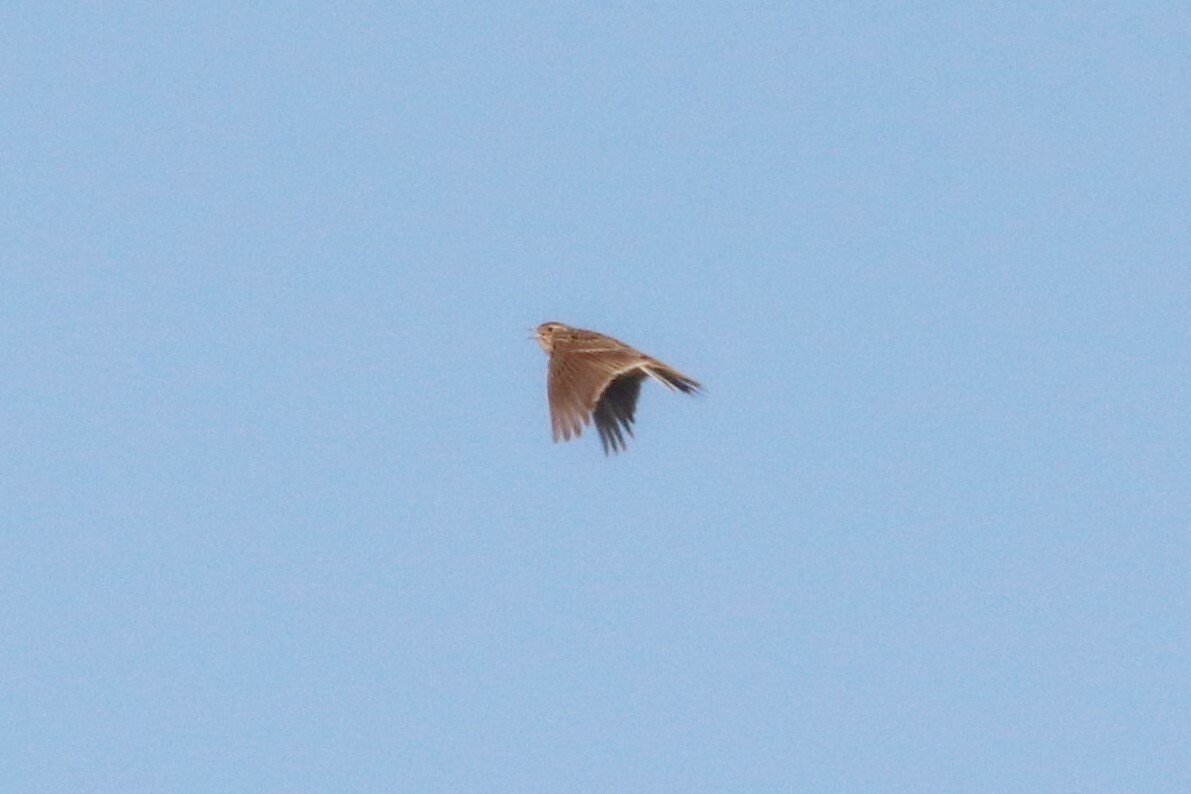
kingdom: Animalia
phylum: Chordata
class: Aves
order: Passeriformes
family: Alaudidae
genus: Alauda
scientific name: Alauda arvensis
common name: Eurasian skylark
